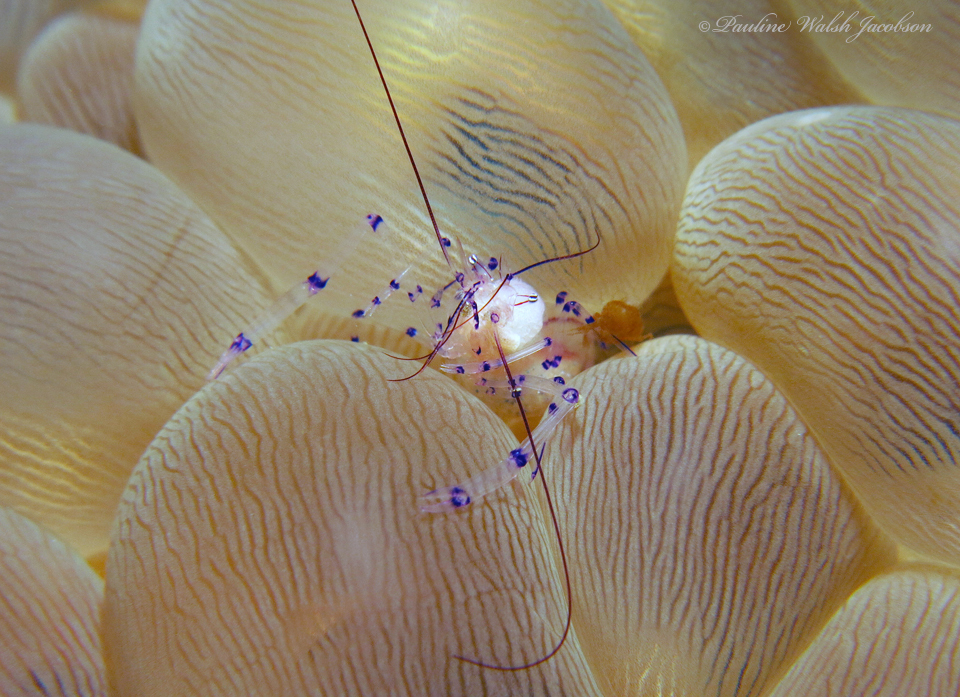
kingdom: Animalia
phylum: Arthropoda
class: Malacostraca
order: Decapoda
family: Palaemonidae
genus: Vir
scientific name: Vir colemani
